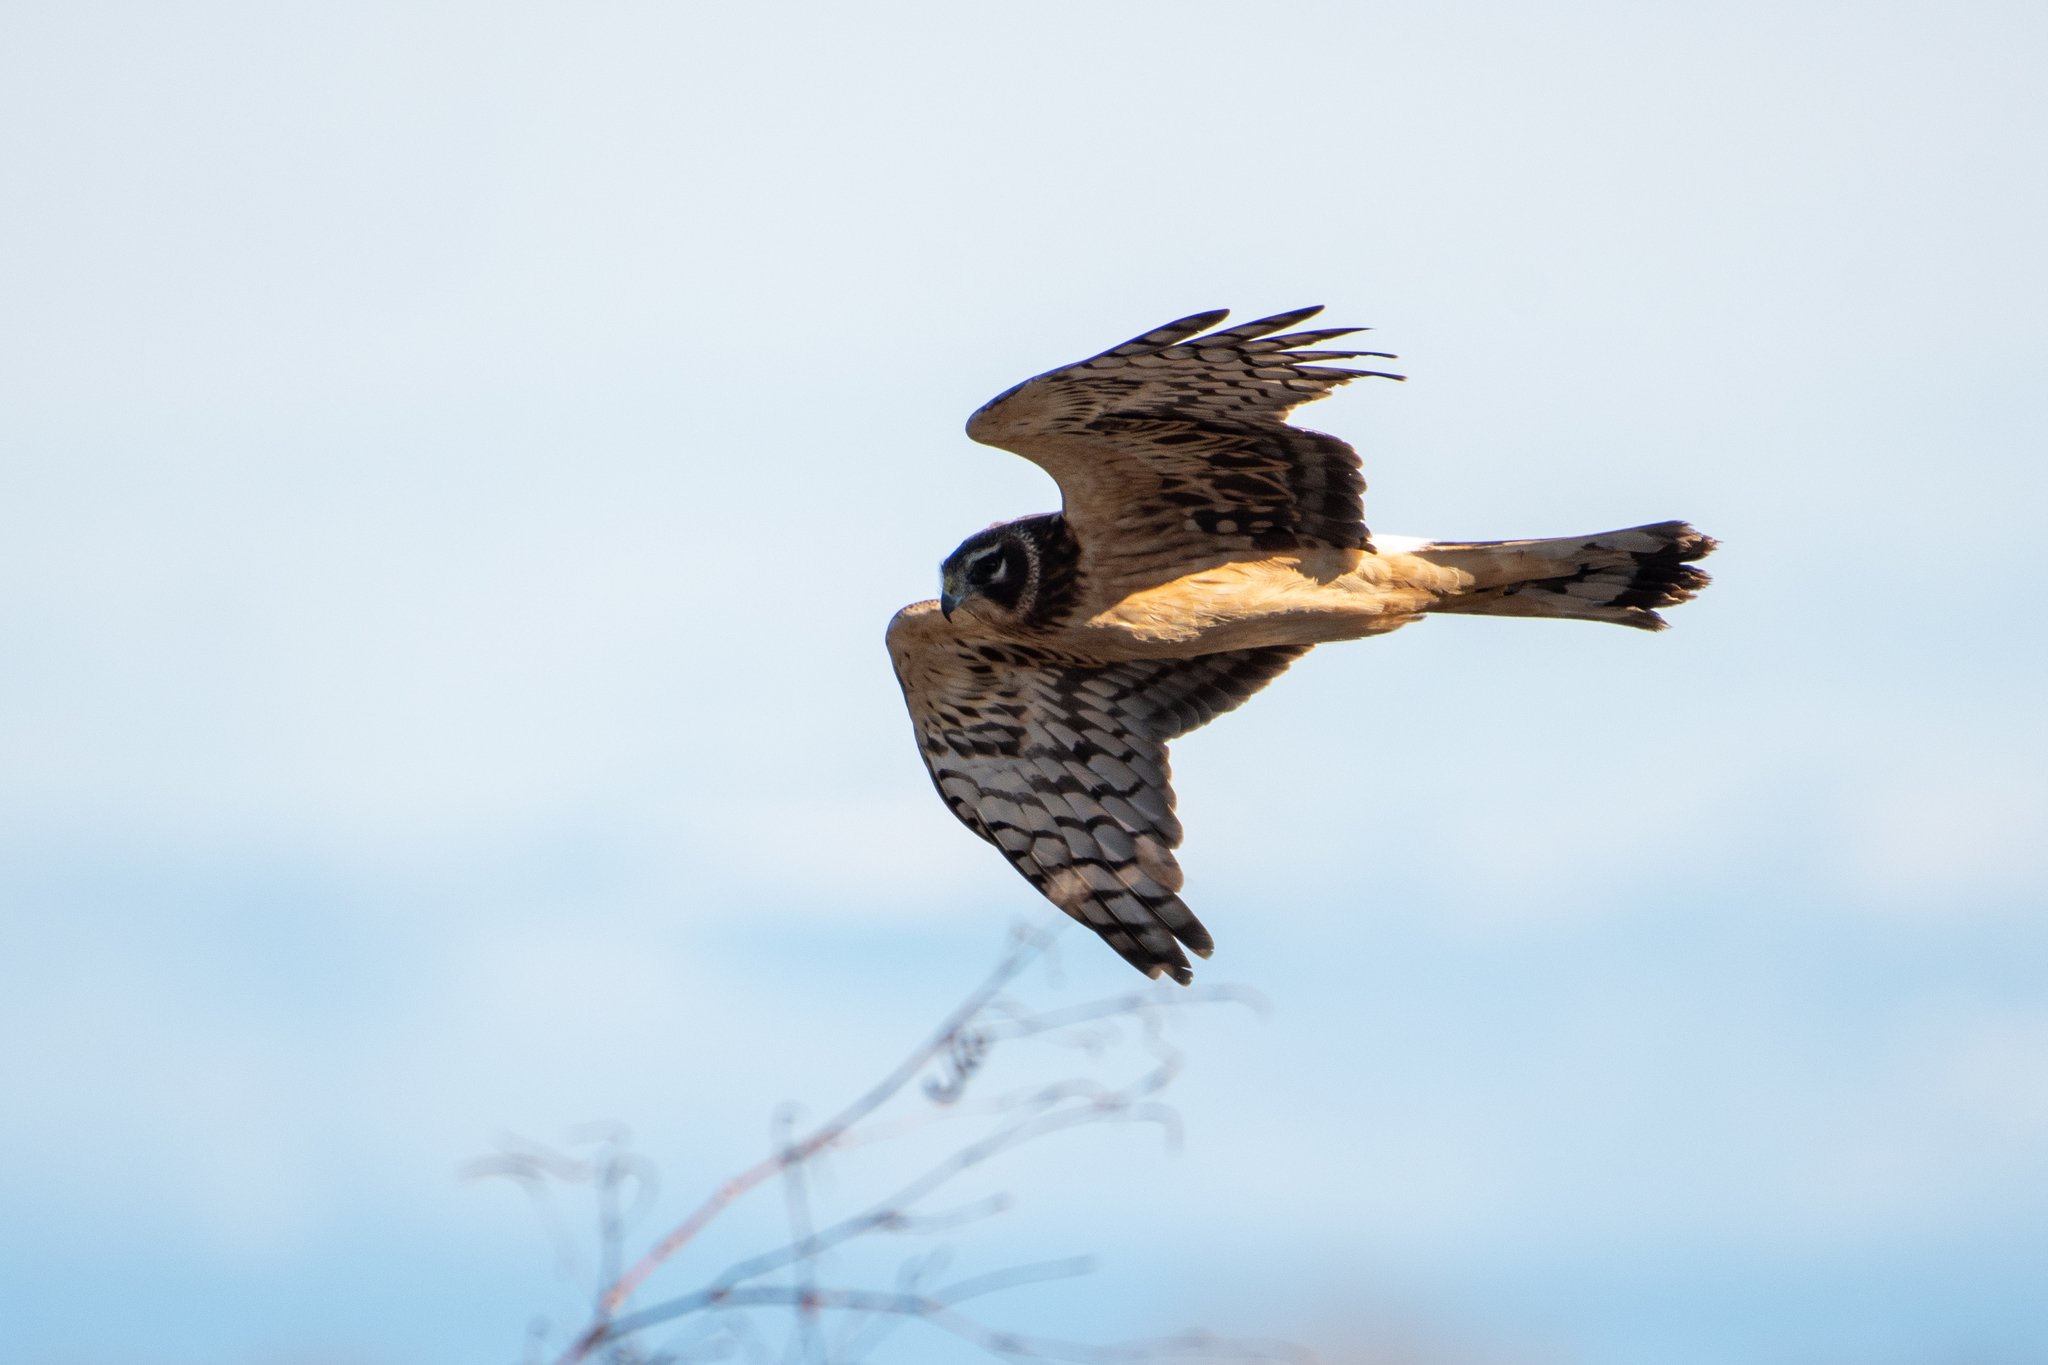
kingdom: Animalia
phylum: Chordata
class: Aves
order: Accipitriformes
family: Accipitridae
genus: Circus
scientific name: Circus cyaneus
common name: Hen harrier
